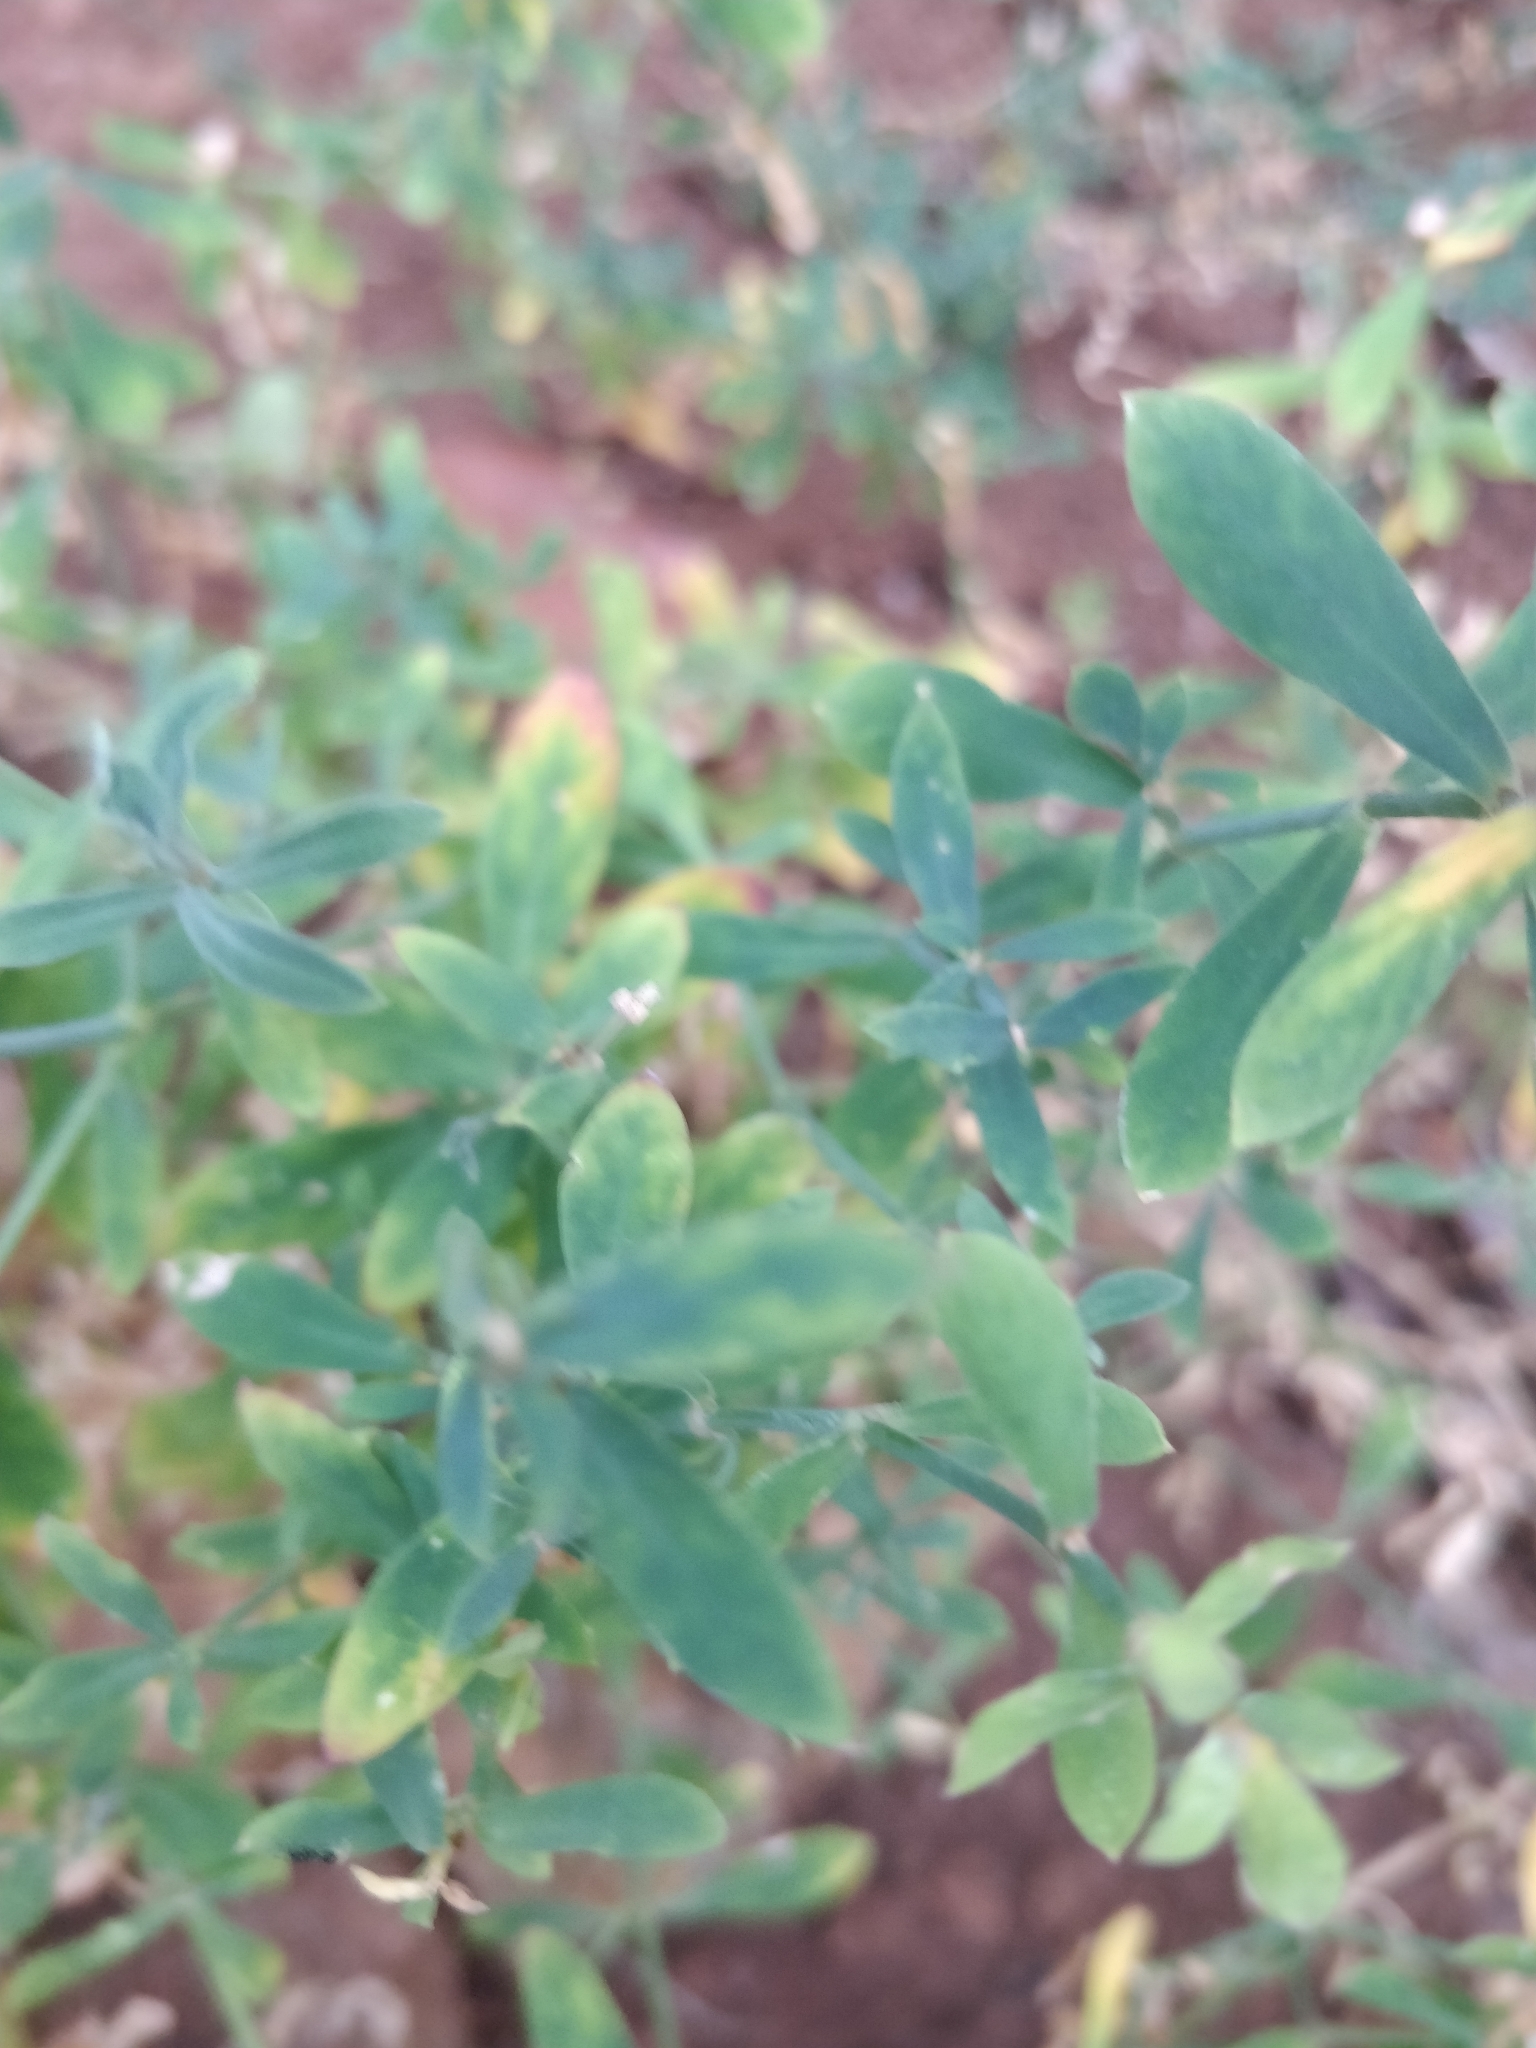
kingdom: Plantae
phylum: Tracheophyta
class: Magnoliopsida
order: Caryophyllales
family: Caryophyllaceae
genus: Silene
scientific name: Silene uniflora
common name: Sea campion
